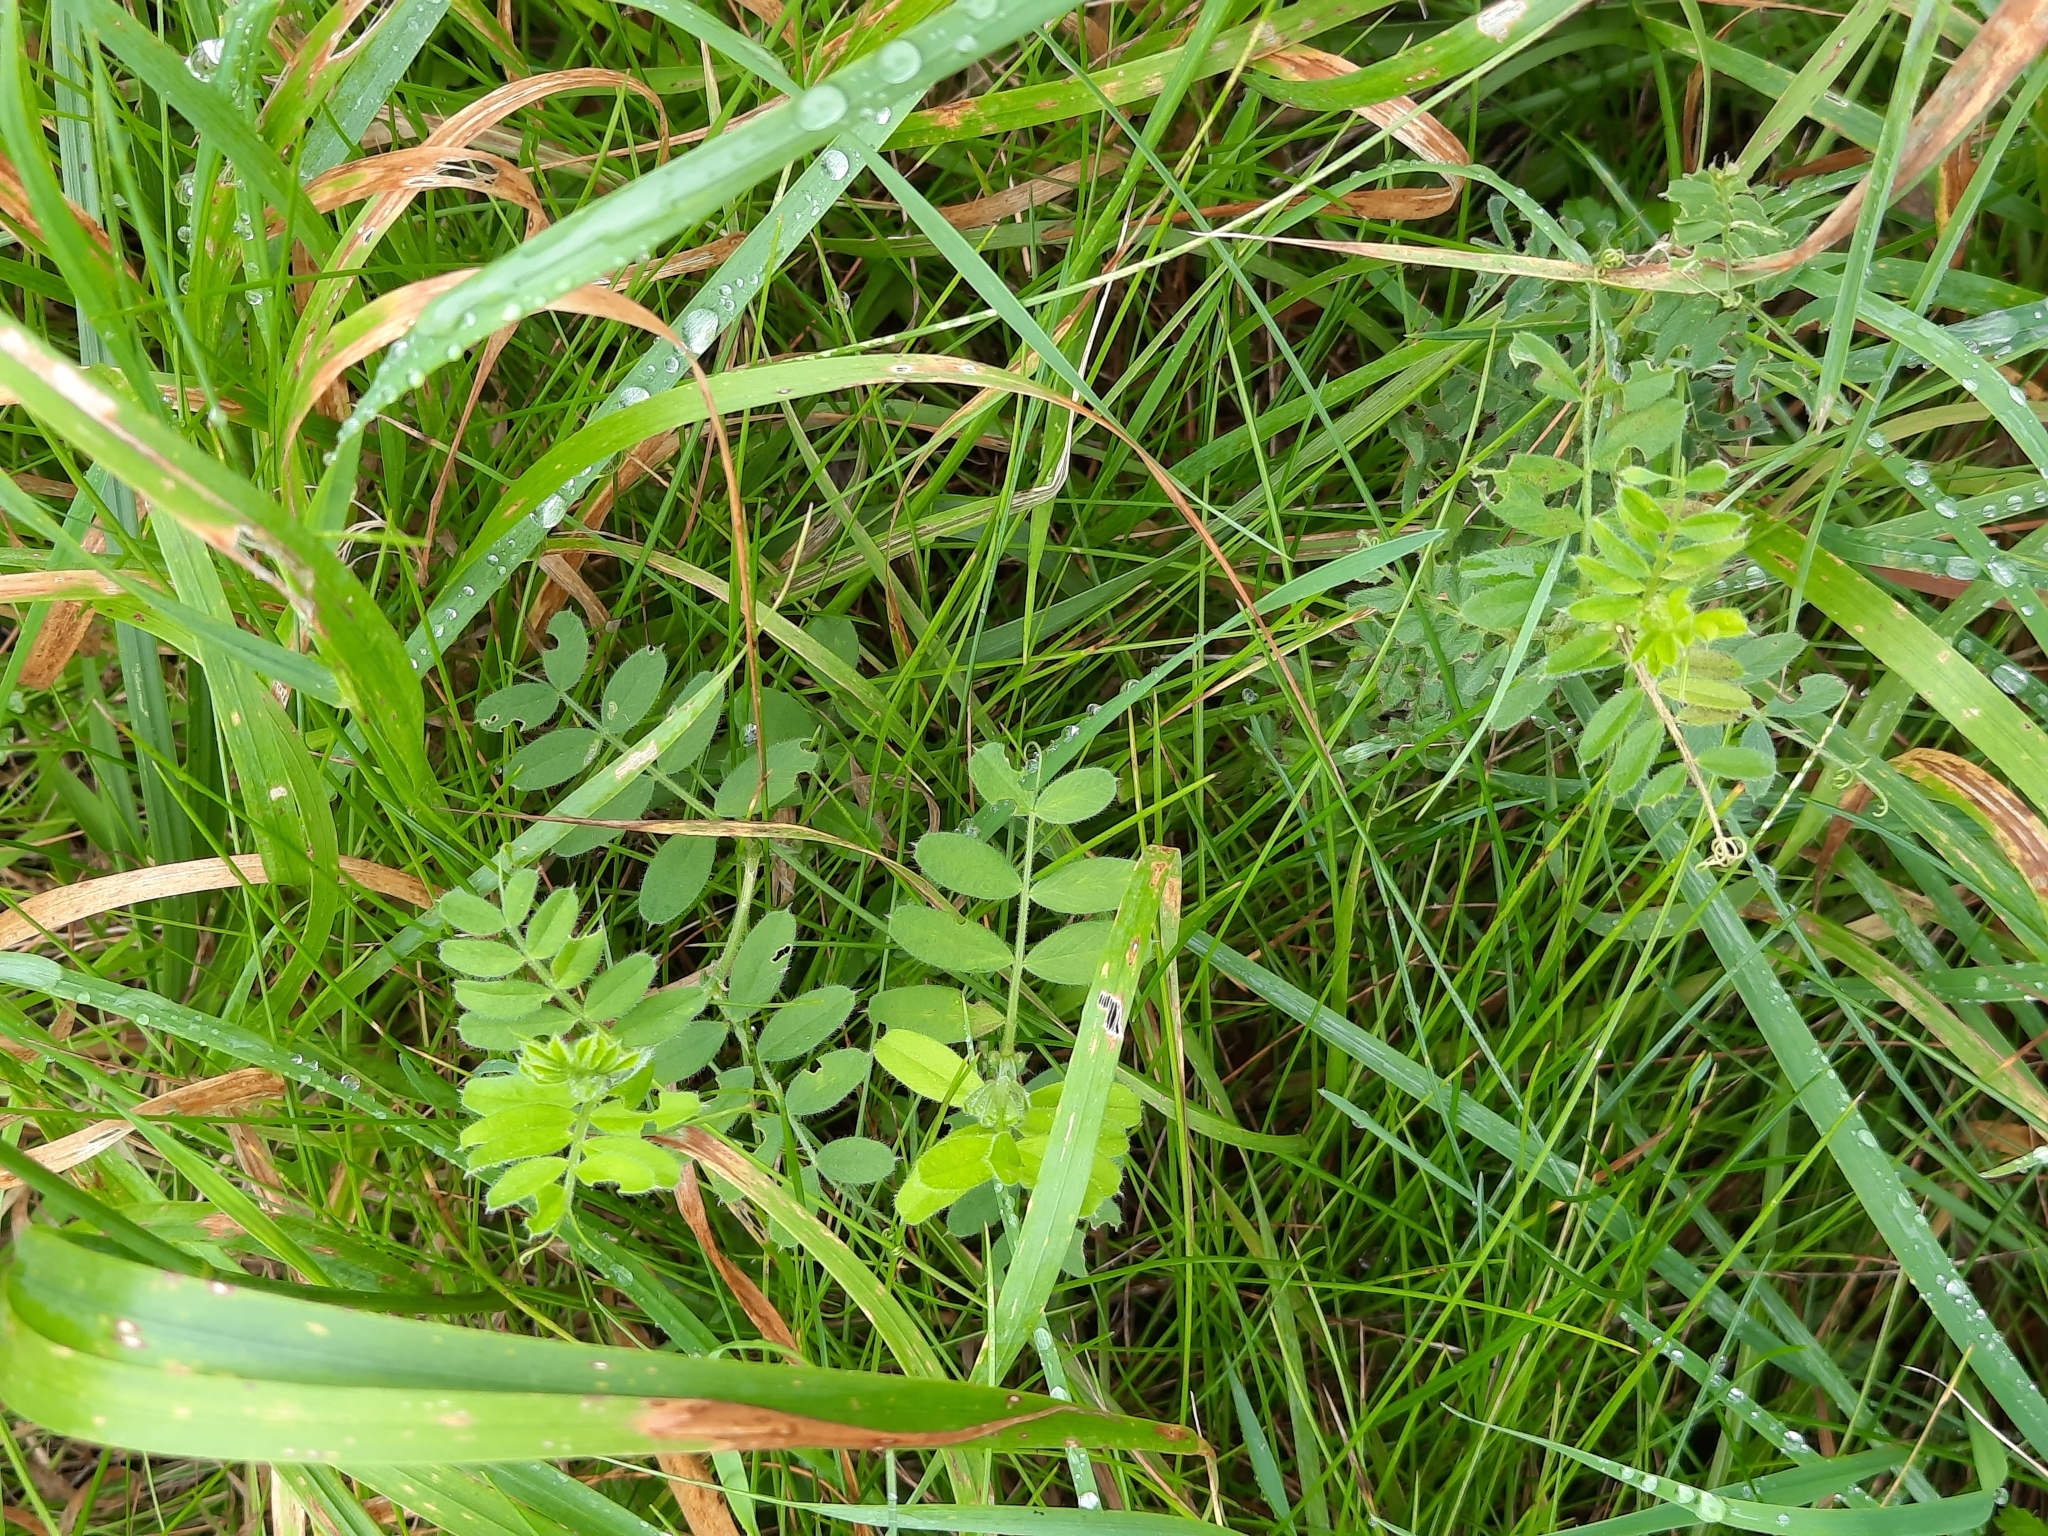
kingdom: Plantae
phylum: Tracheophyta
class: Magnoliopsida
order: Fabales
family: Fabaceae
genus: Vicia
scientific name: Vicia sepium
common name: Bush vetch
